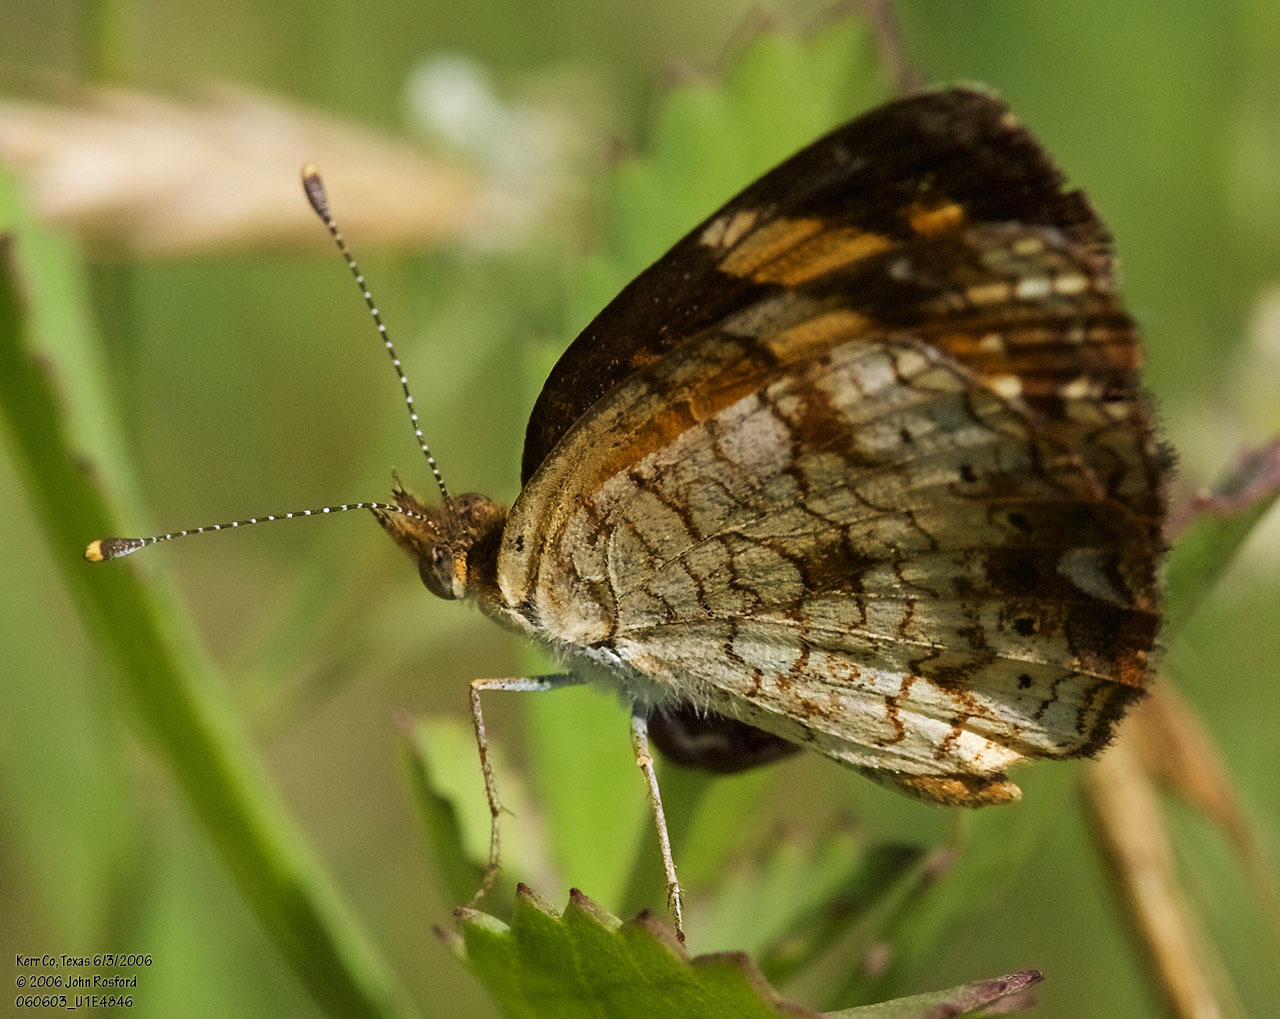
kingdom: Animalia
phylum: Arthropoda
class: Insecta
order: Lepidoptera
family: Nymphalidae
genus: Phyciodes
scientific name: Phyciodes tharos
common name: Pearl crescent
